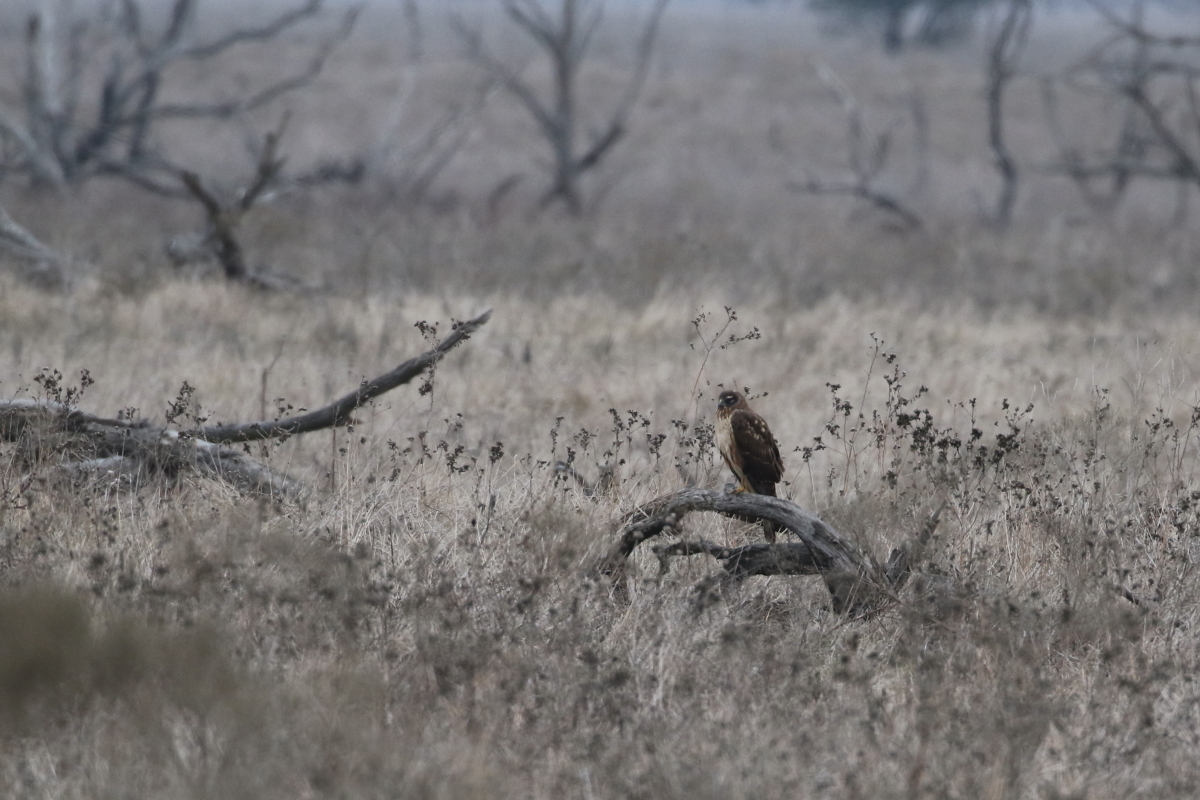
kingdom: Animalia
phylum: Chordata
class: Aves
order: Accipitriformes
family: Accipitridae
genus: Circus
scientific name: Circus cyaneus
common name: Hen harrier
